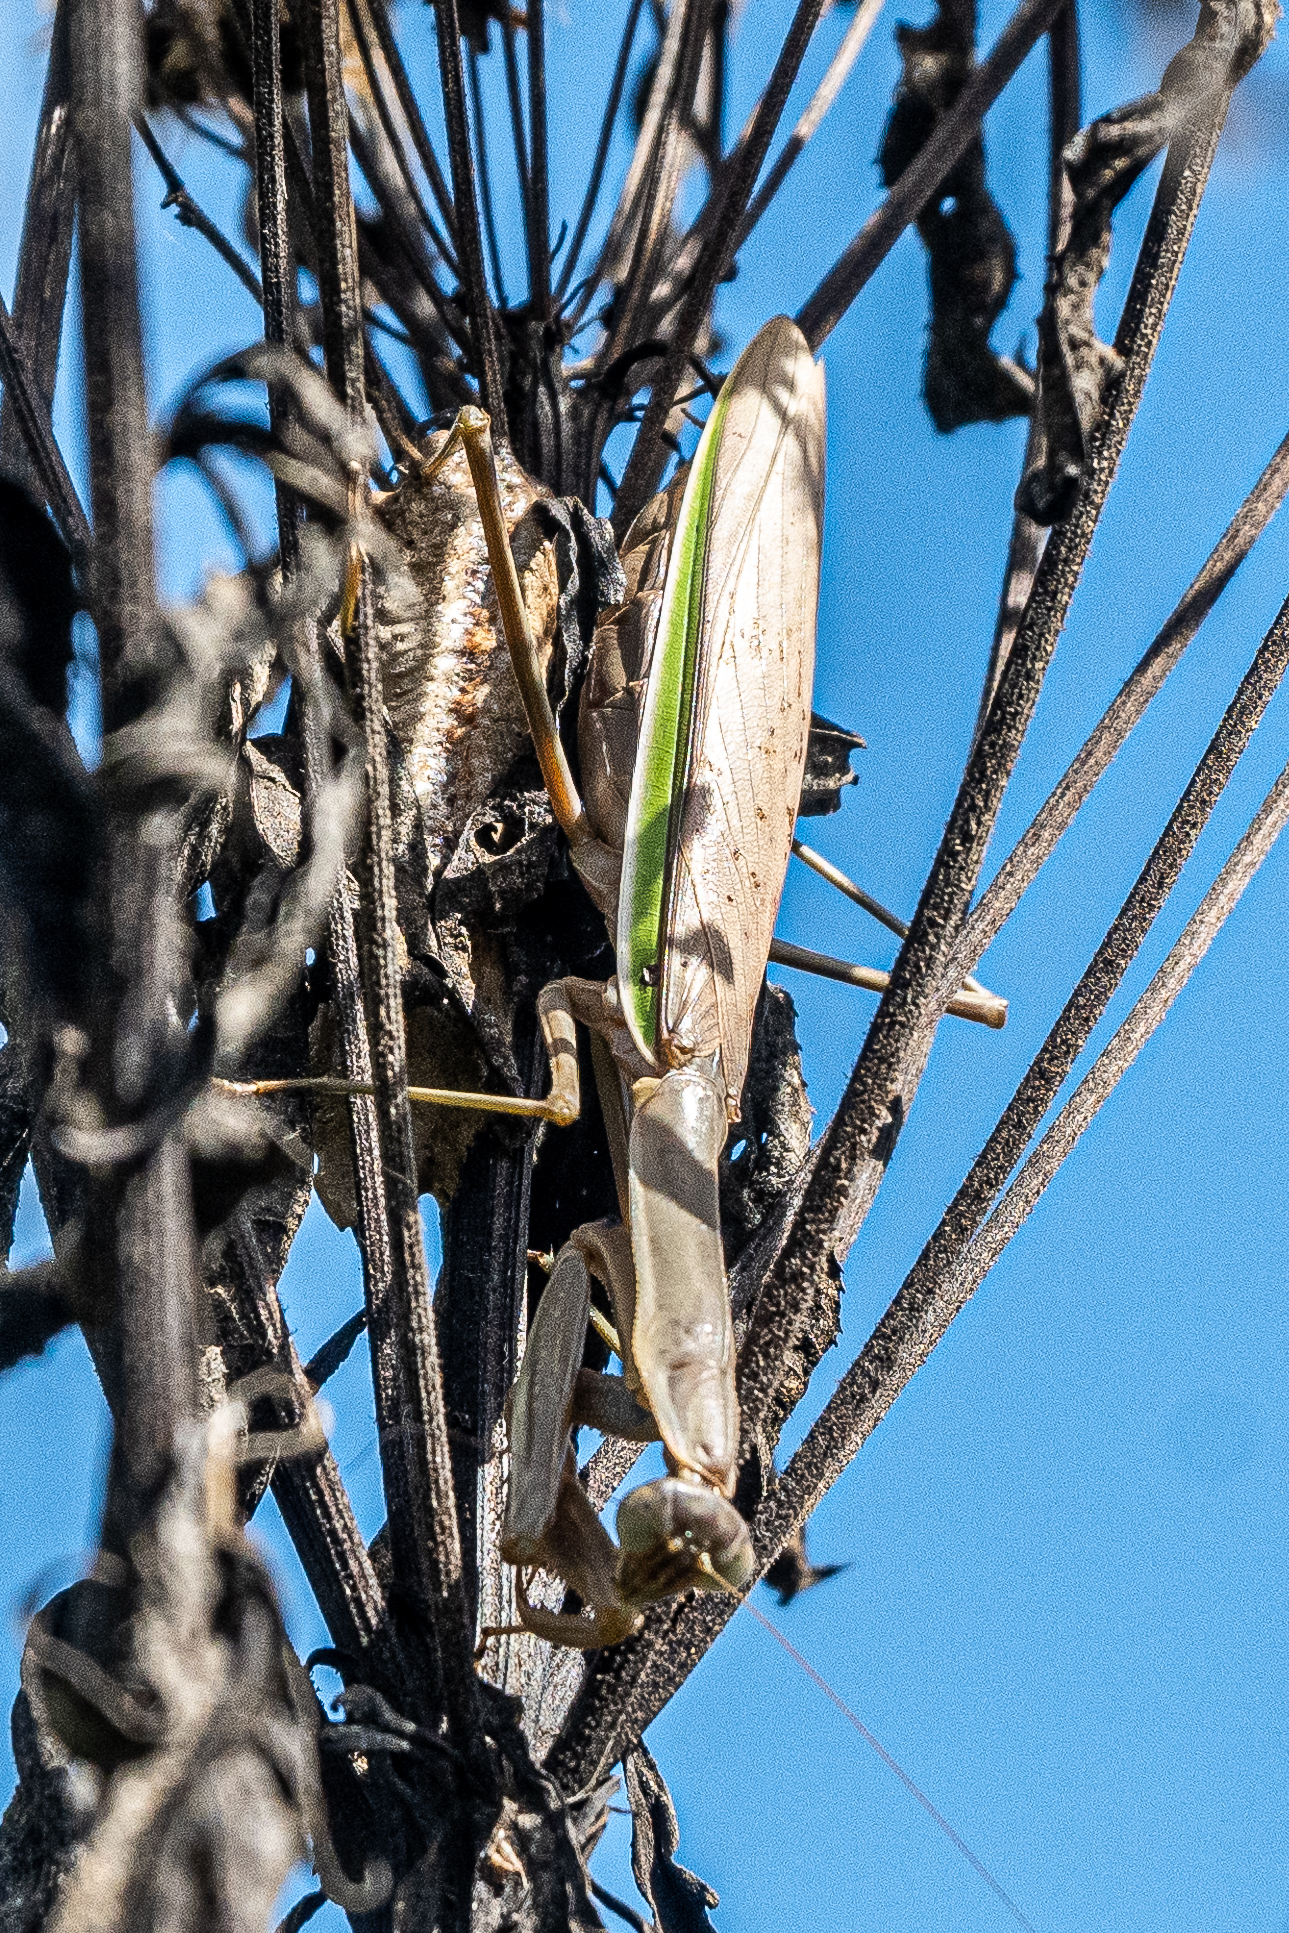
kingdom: Animalia
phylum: Arthropoda
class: Insecta
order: Mantodea
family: Mantidae
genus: Tenodera
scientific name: Tenodera angustipennis
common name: Asian mantis
